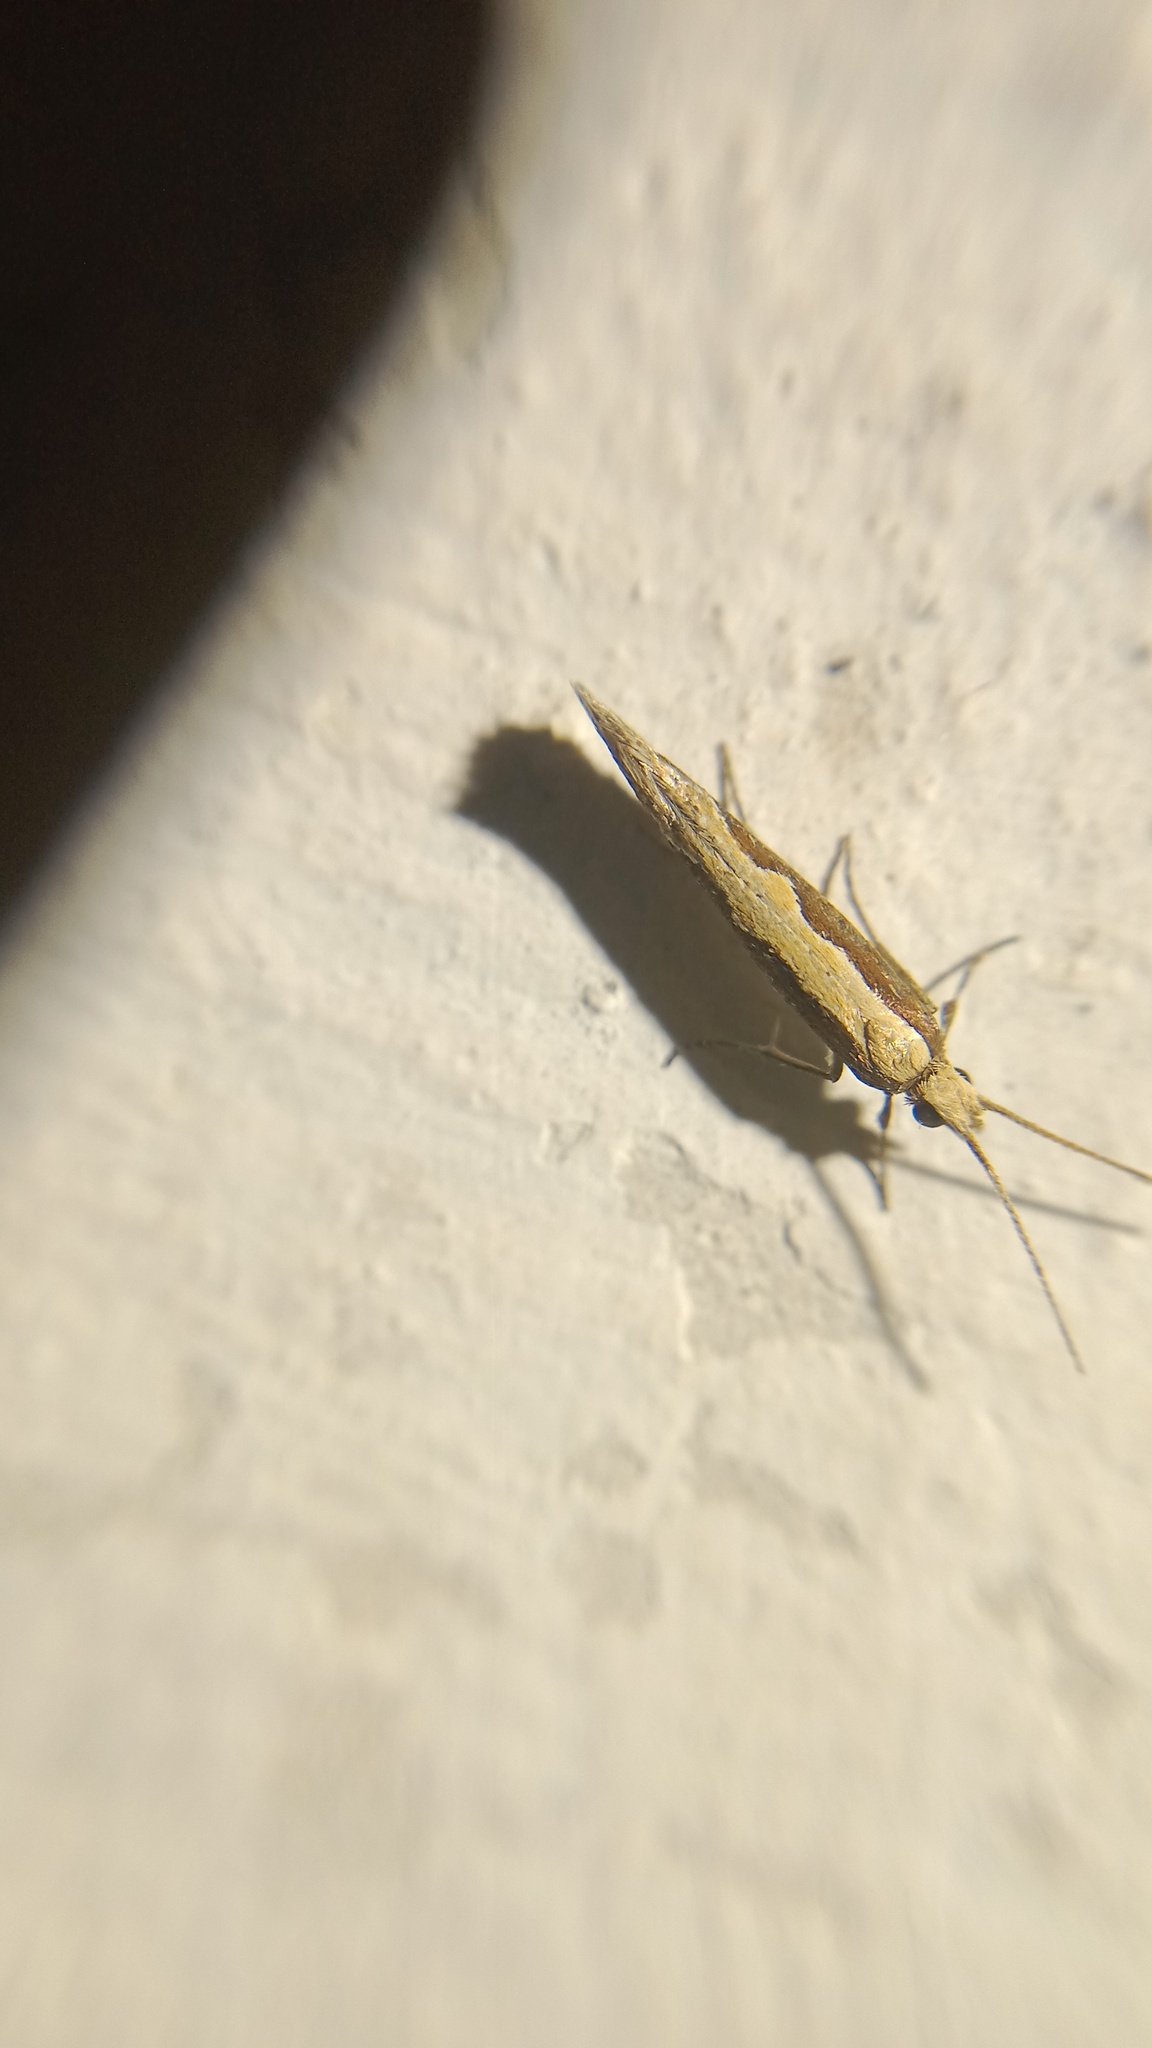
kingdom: Animalia
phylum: Arthropoda
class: Insecta
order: Lepidoptera
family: Plutellidae
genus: Plutella
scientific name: Plutella xylostella
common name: Diamond-back moth
